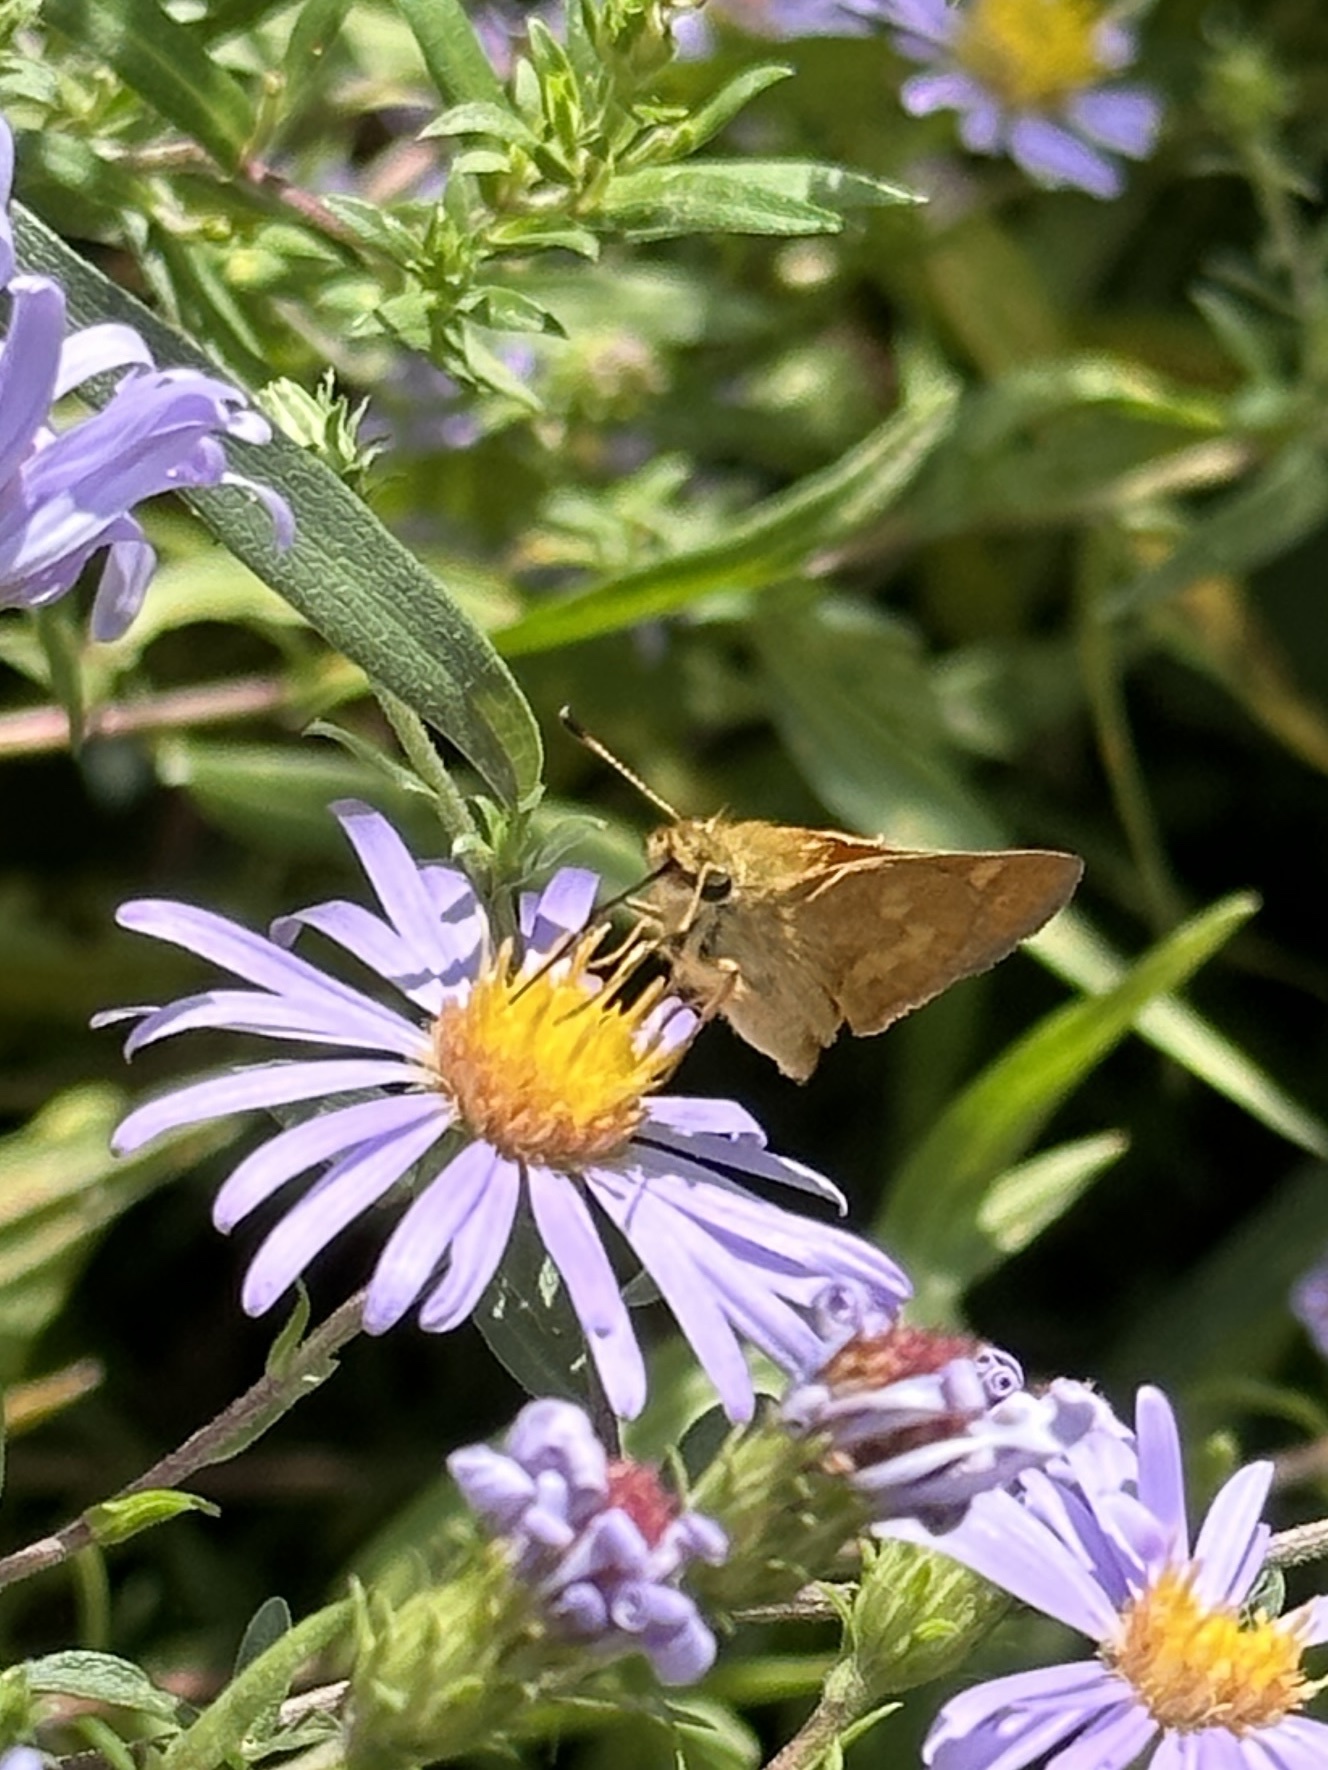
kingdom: Animalia
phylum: Arthropoda
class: Insecta
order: Lepidoptera
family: Hesperiidae
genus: Ochlodes
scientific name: Ochlodes sylvanoides
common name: Woodland skipper
